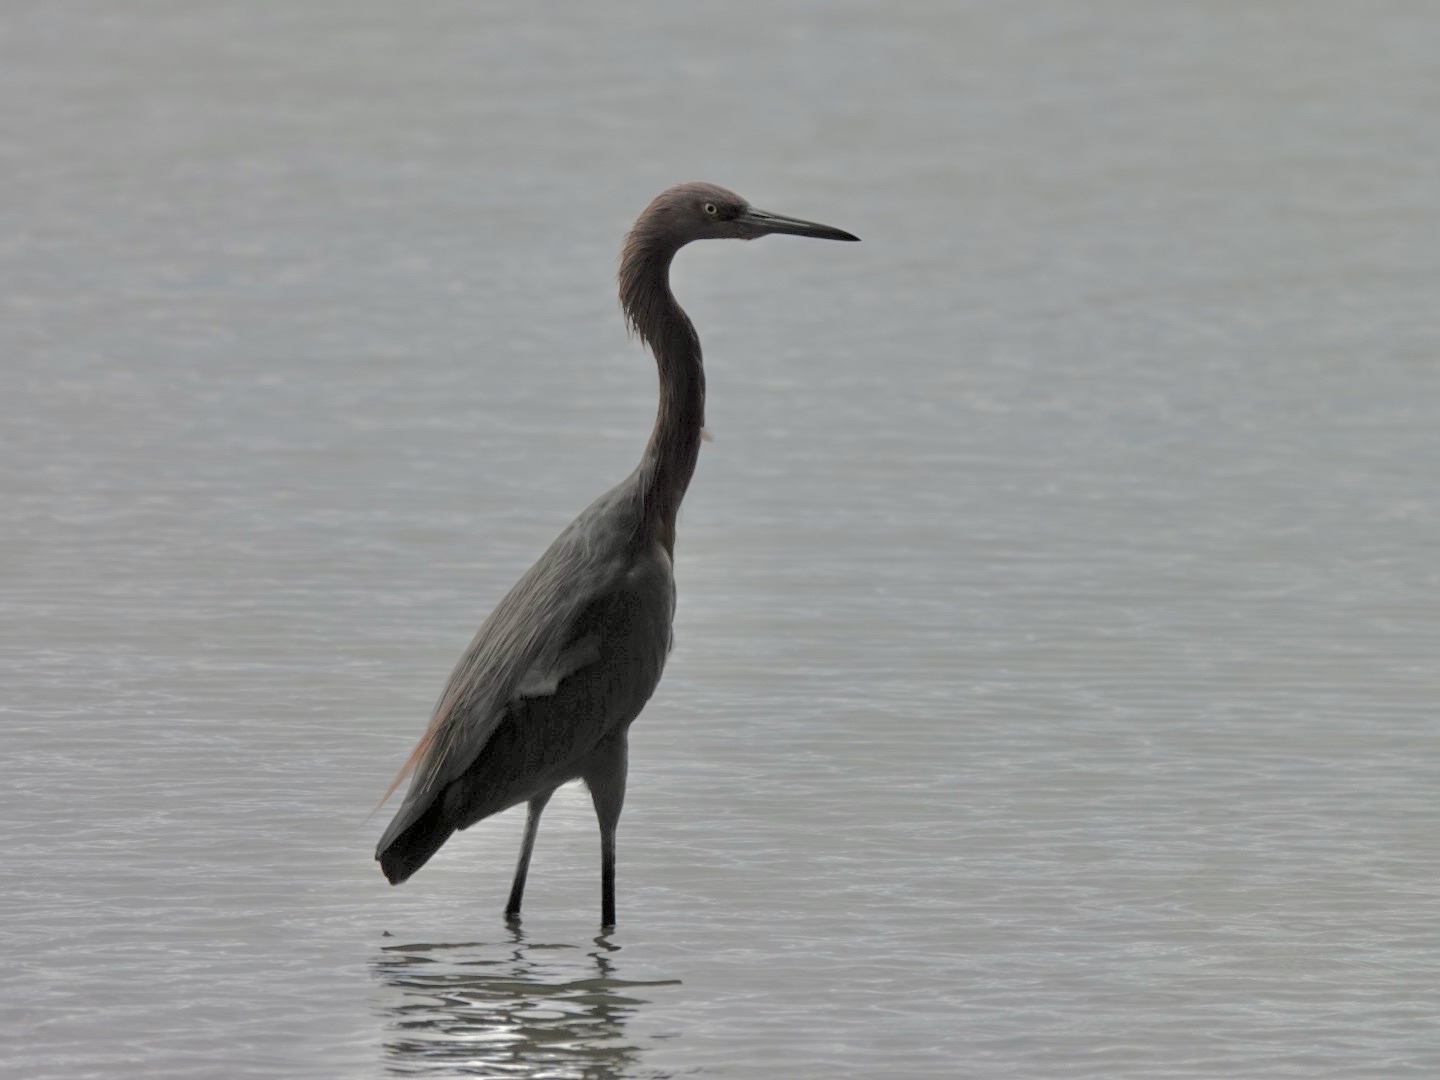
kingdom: Animalia
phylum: Chordata
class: Aves
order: Pelecaniformes
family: Ardeidae
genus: Egretta
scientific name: Egretta rufescens
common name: Reddish egret
